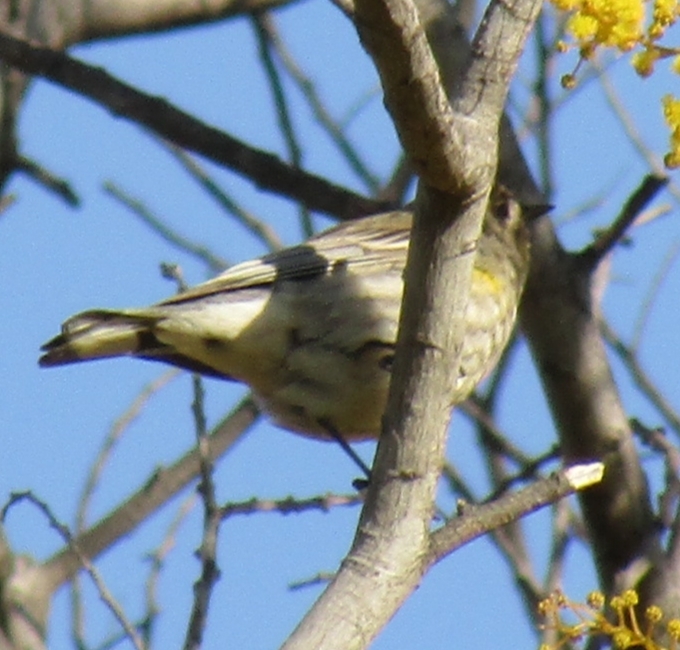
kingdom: Animalia
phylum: Chordata
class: Aves
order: Passeriformes
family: Parulidae
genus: Setophaga
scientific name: Setophaga coronata
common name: Myrtle warbler
